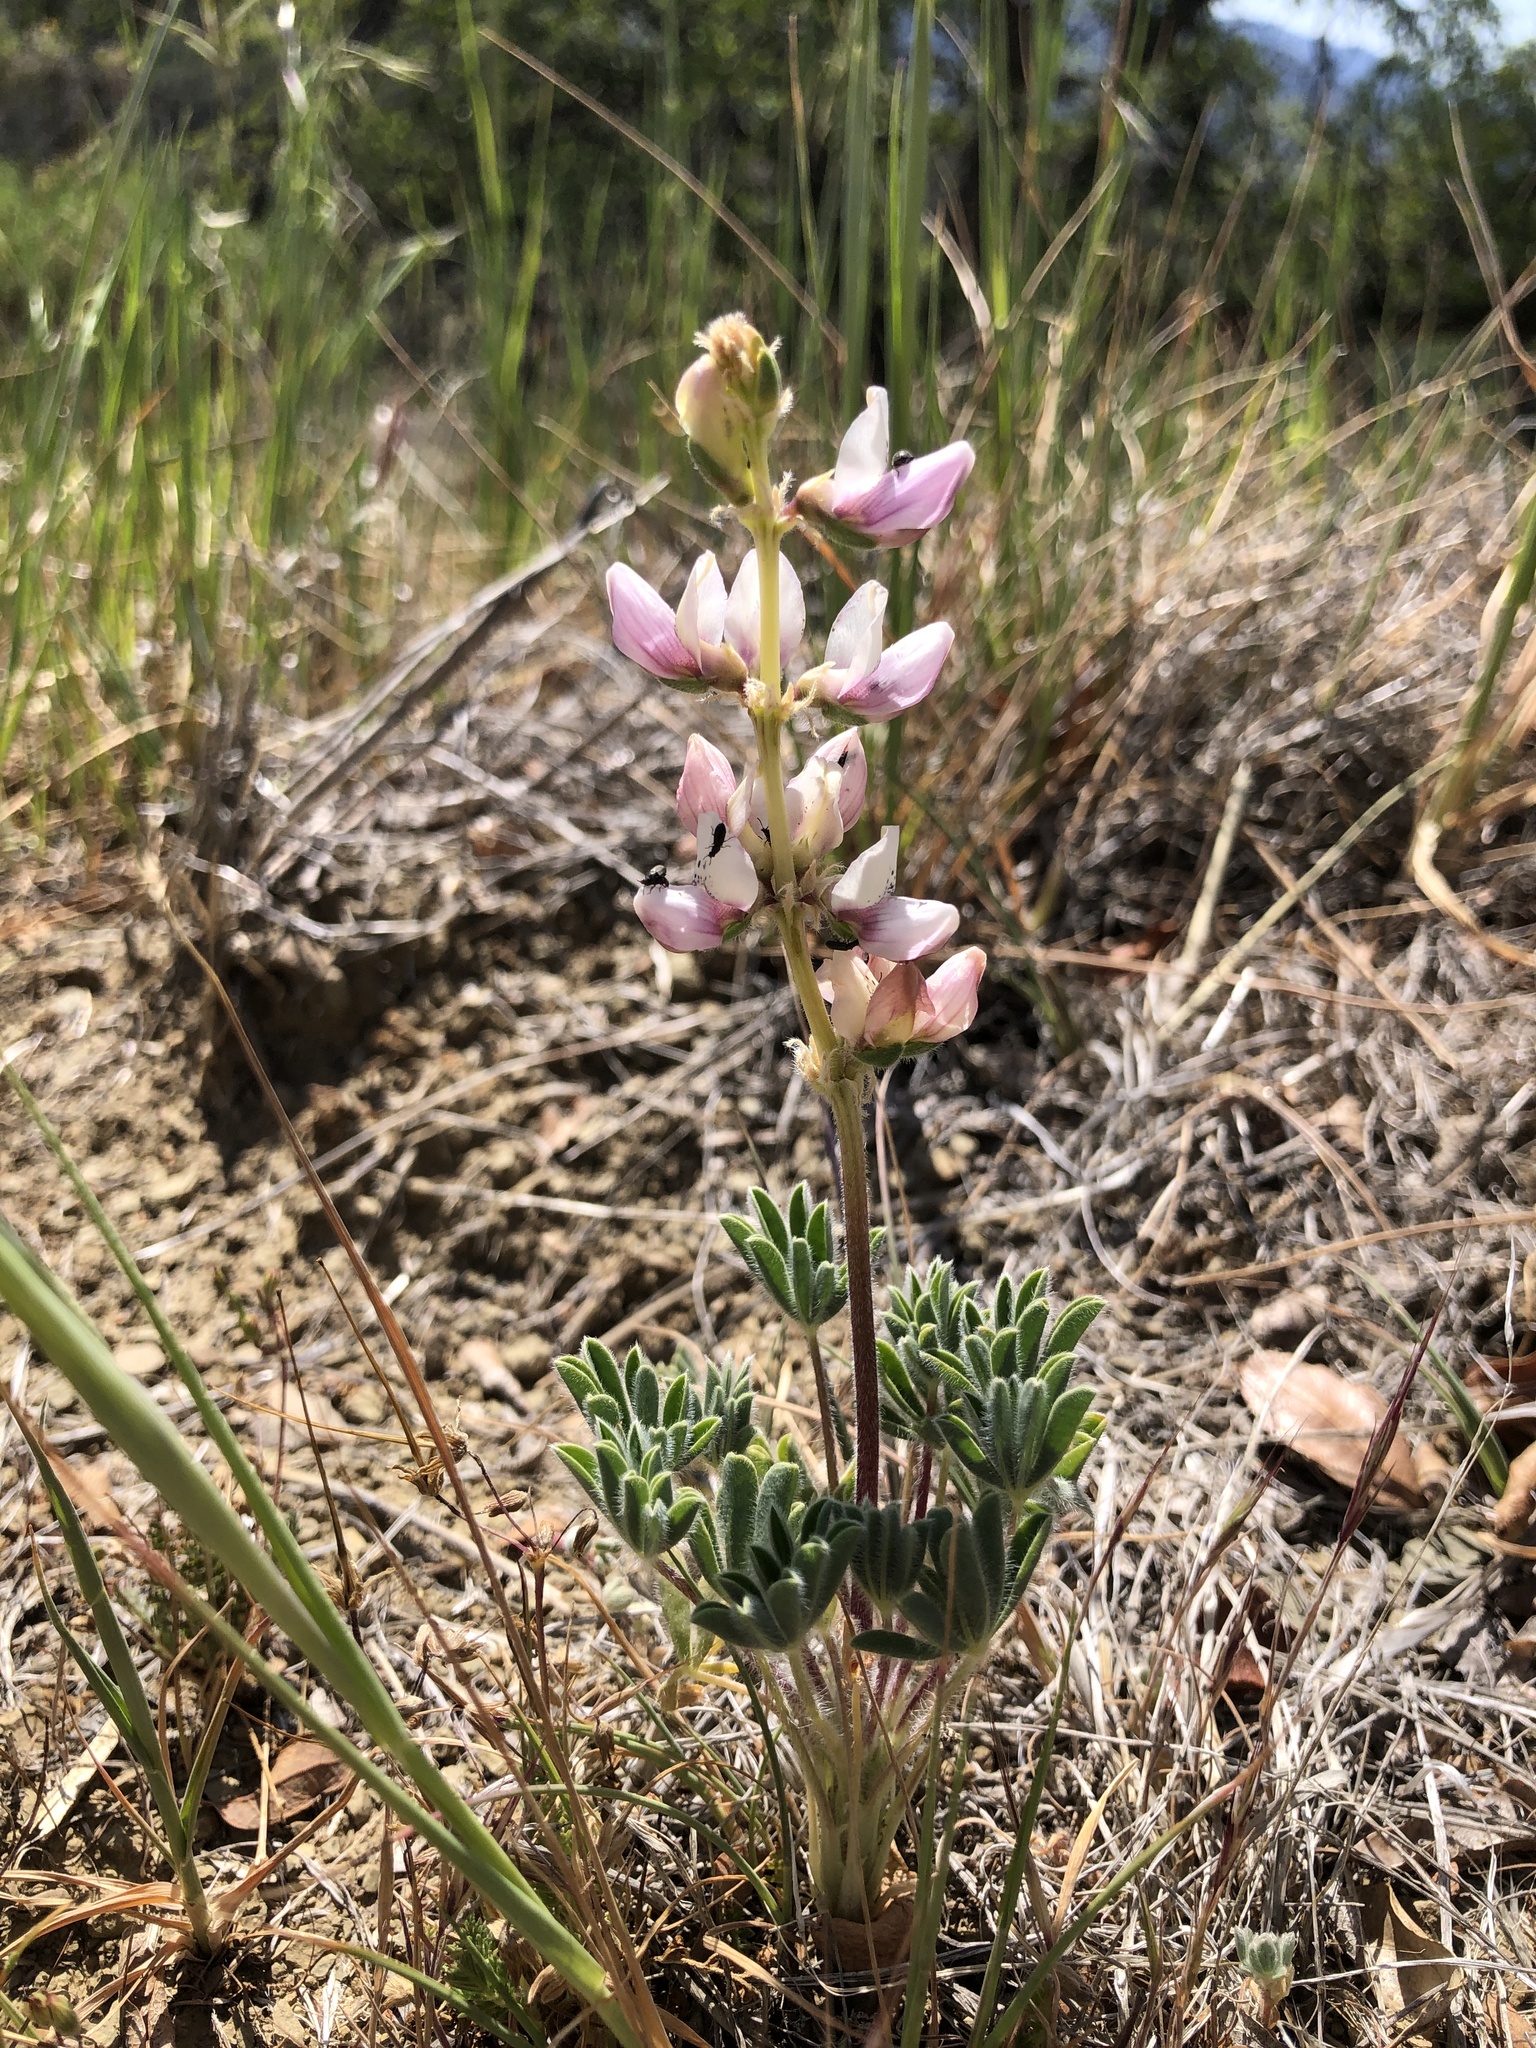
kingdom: Plantae
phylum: Tracheophyta
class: Magnoliopsida
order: Fabales
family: Fabaceae
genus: Lupinus
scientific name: Lupinus microcarpus
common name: Chick lupine
